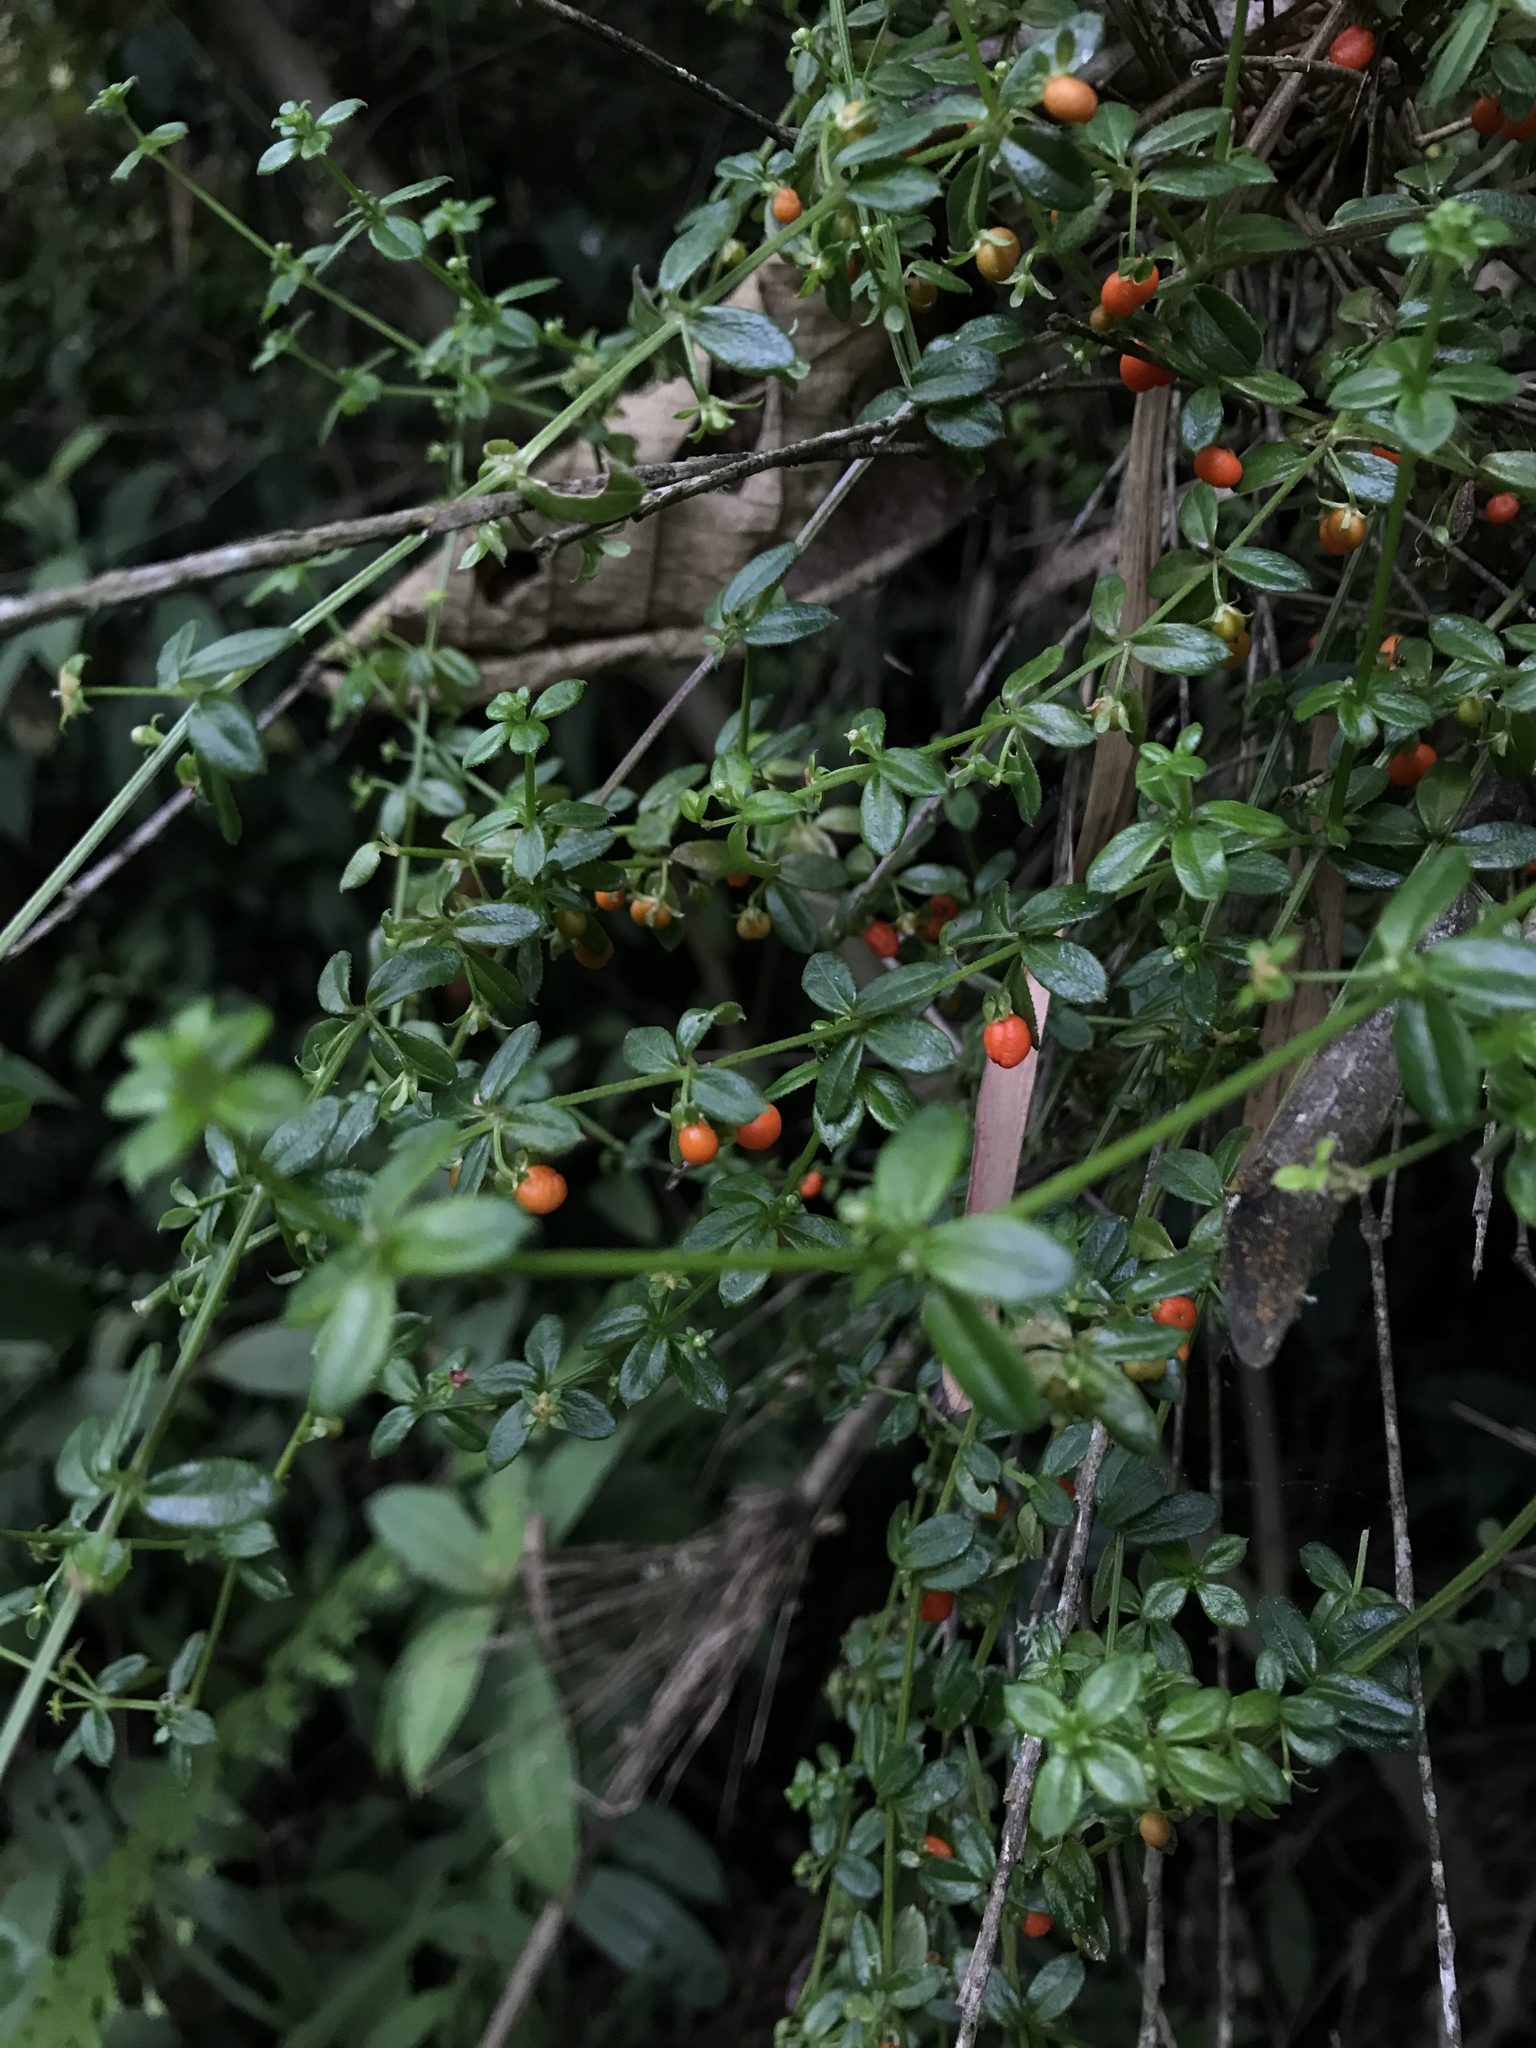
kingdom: Plantae
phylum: Tracheophyta
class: Magnoliopsida
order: Gentianales
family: Rubiaceae
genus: Galium
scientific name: Galium hypocarpium
